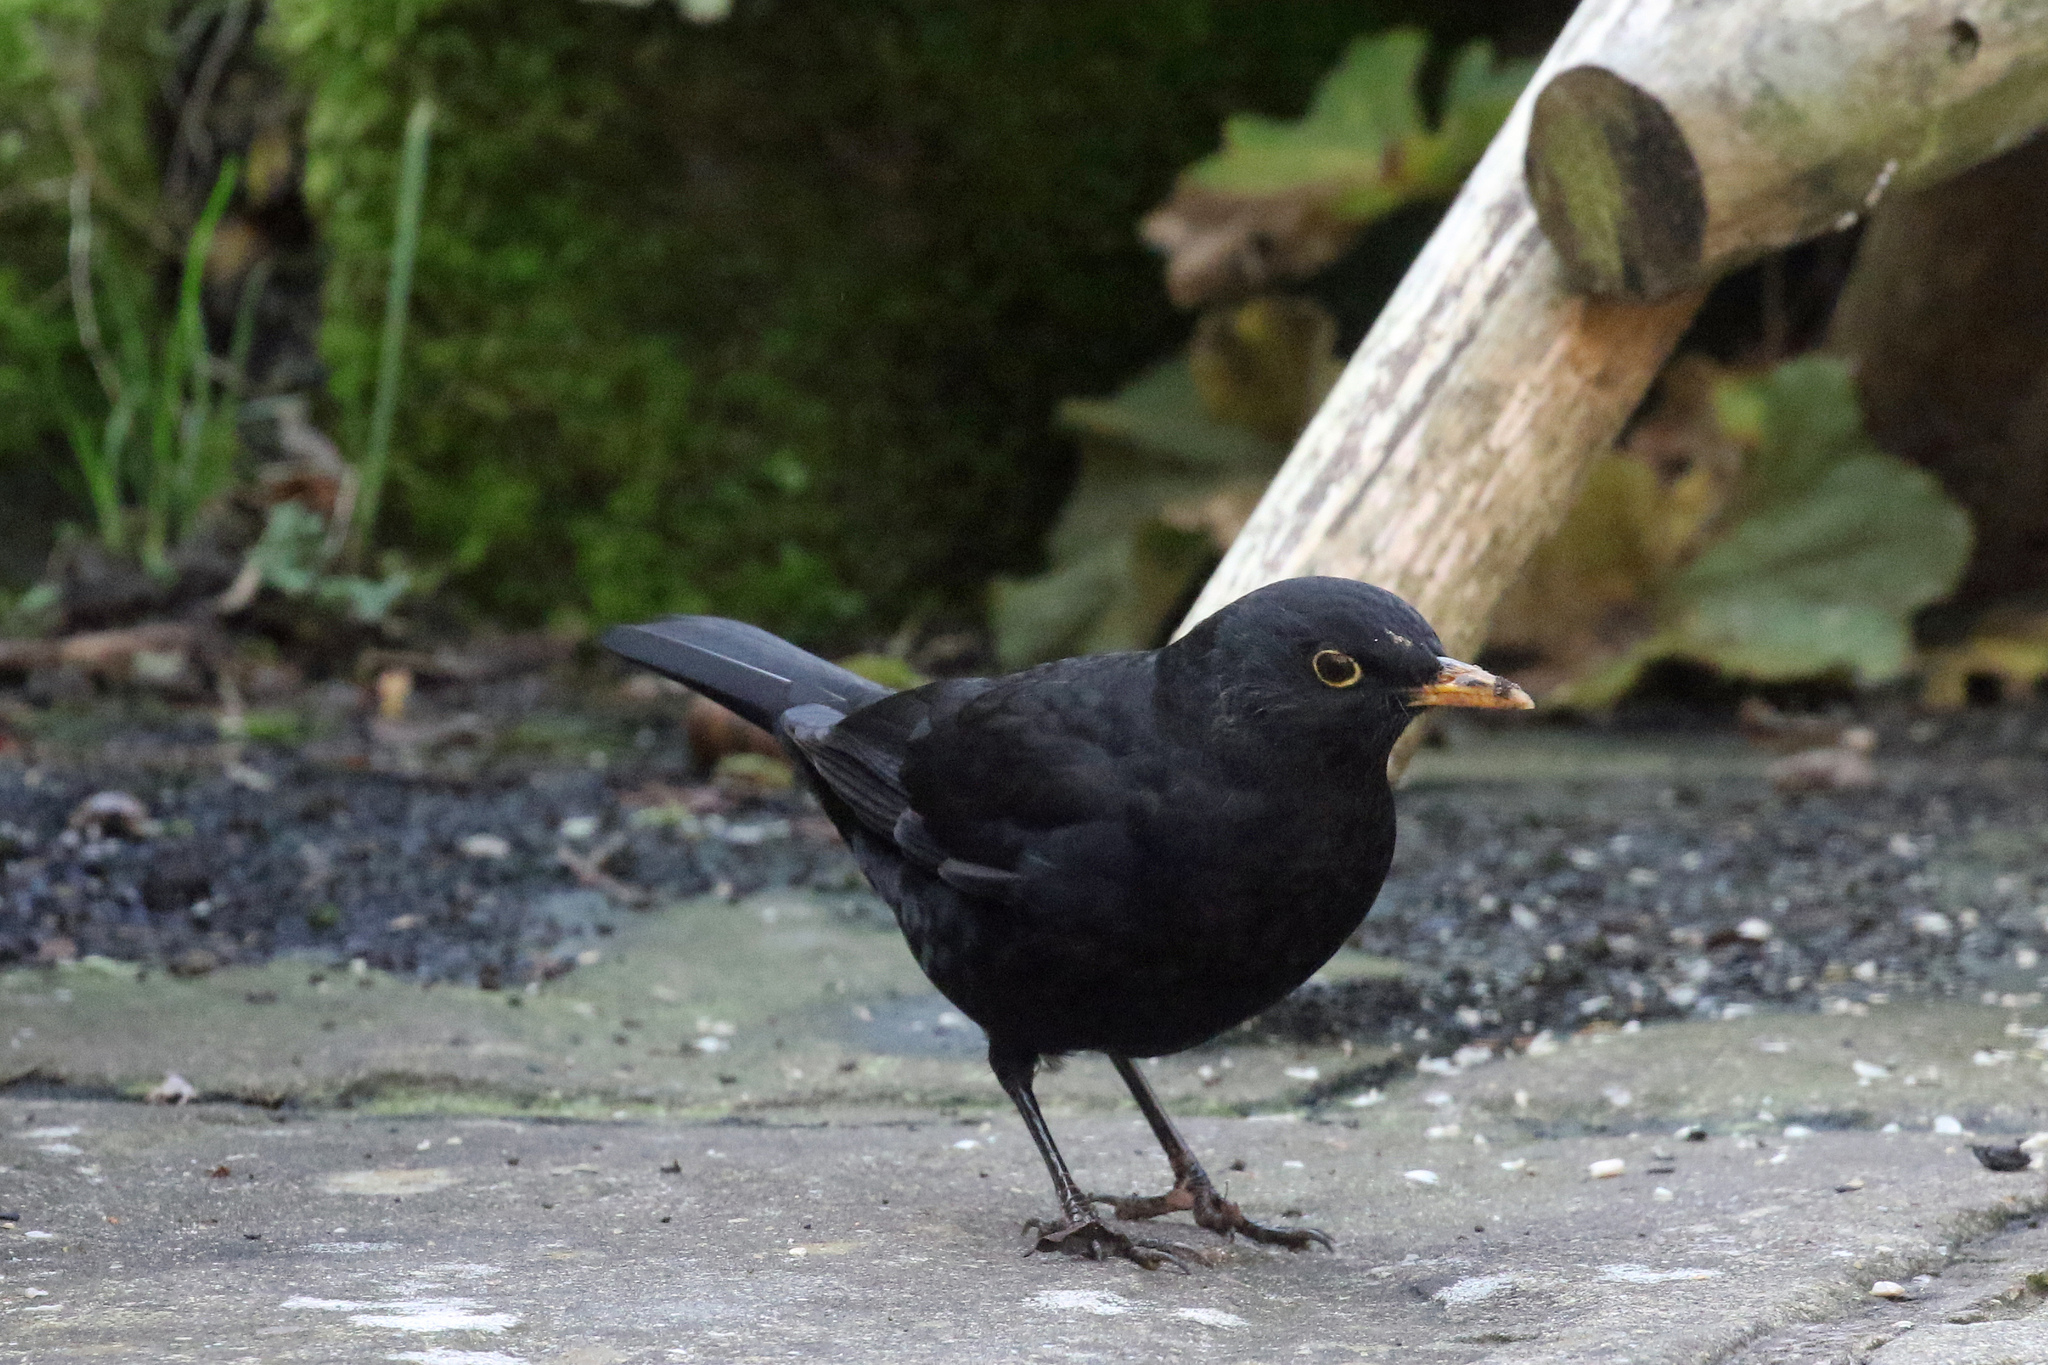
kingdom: Animalia
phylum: Chordata
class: Aves
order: Passeriformes
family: Turdidae
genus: Turdus
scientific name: Turdus merula
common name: Common blackbird
